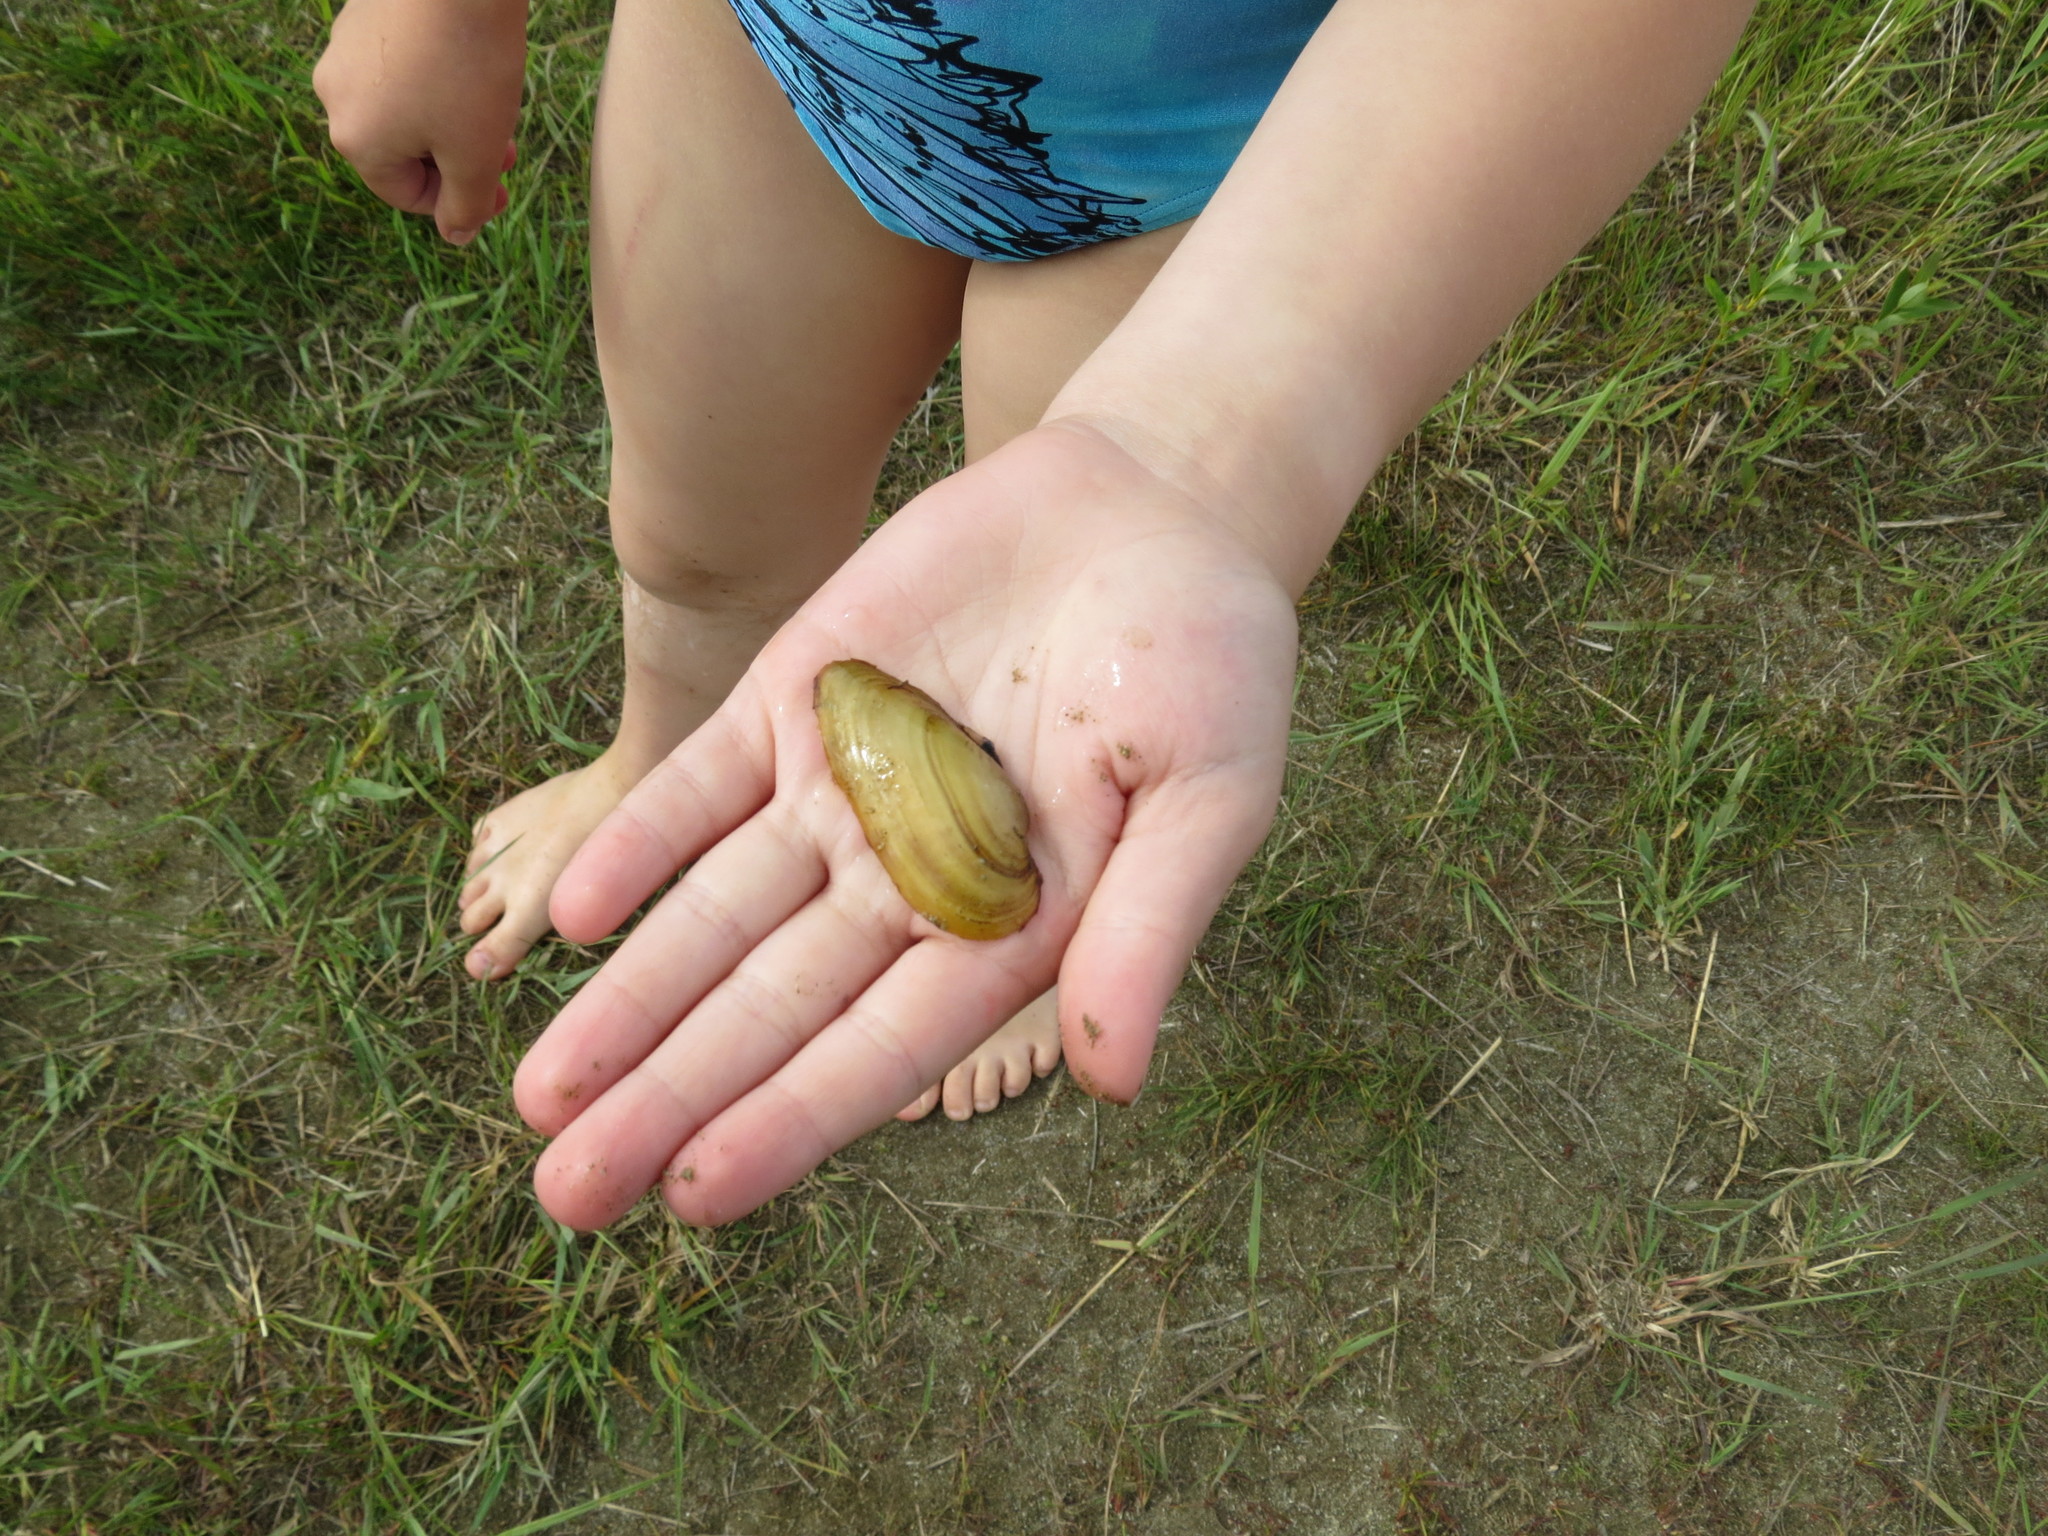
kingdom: Animalia
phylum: Mollusca
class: Bivalvia
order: Unionida
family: Unionidae
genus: Unio
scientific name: Unio pictorum
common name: Painter's mussel
